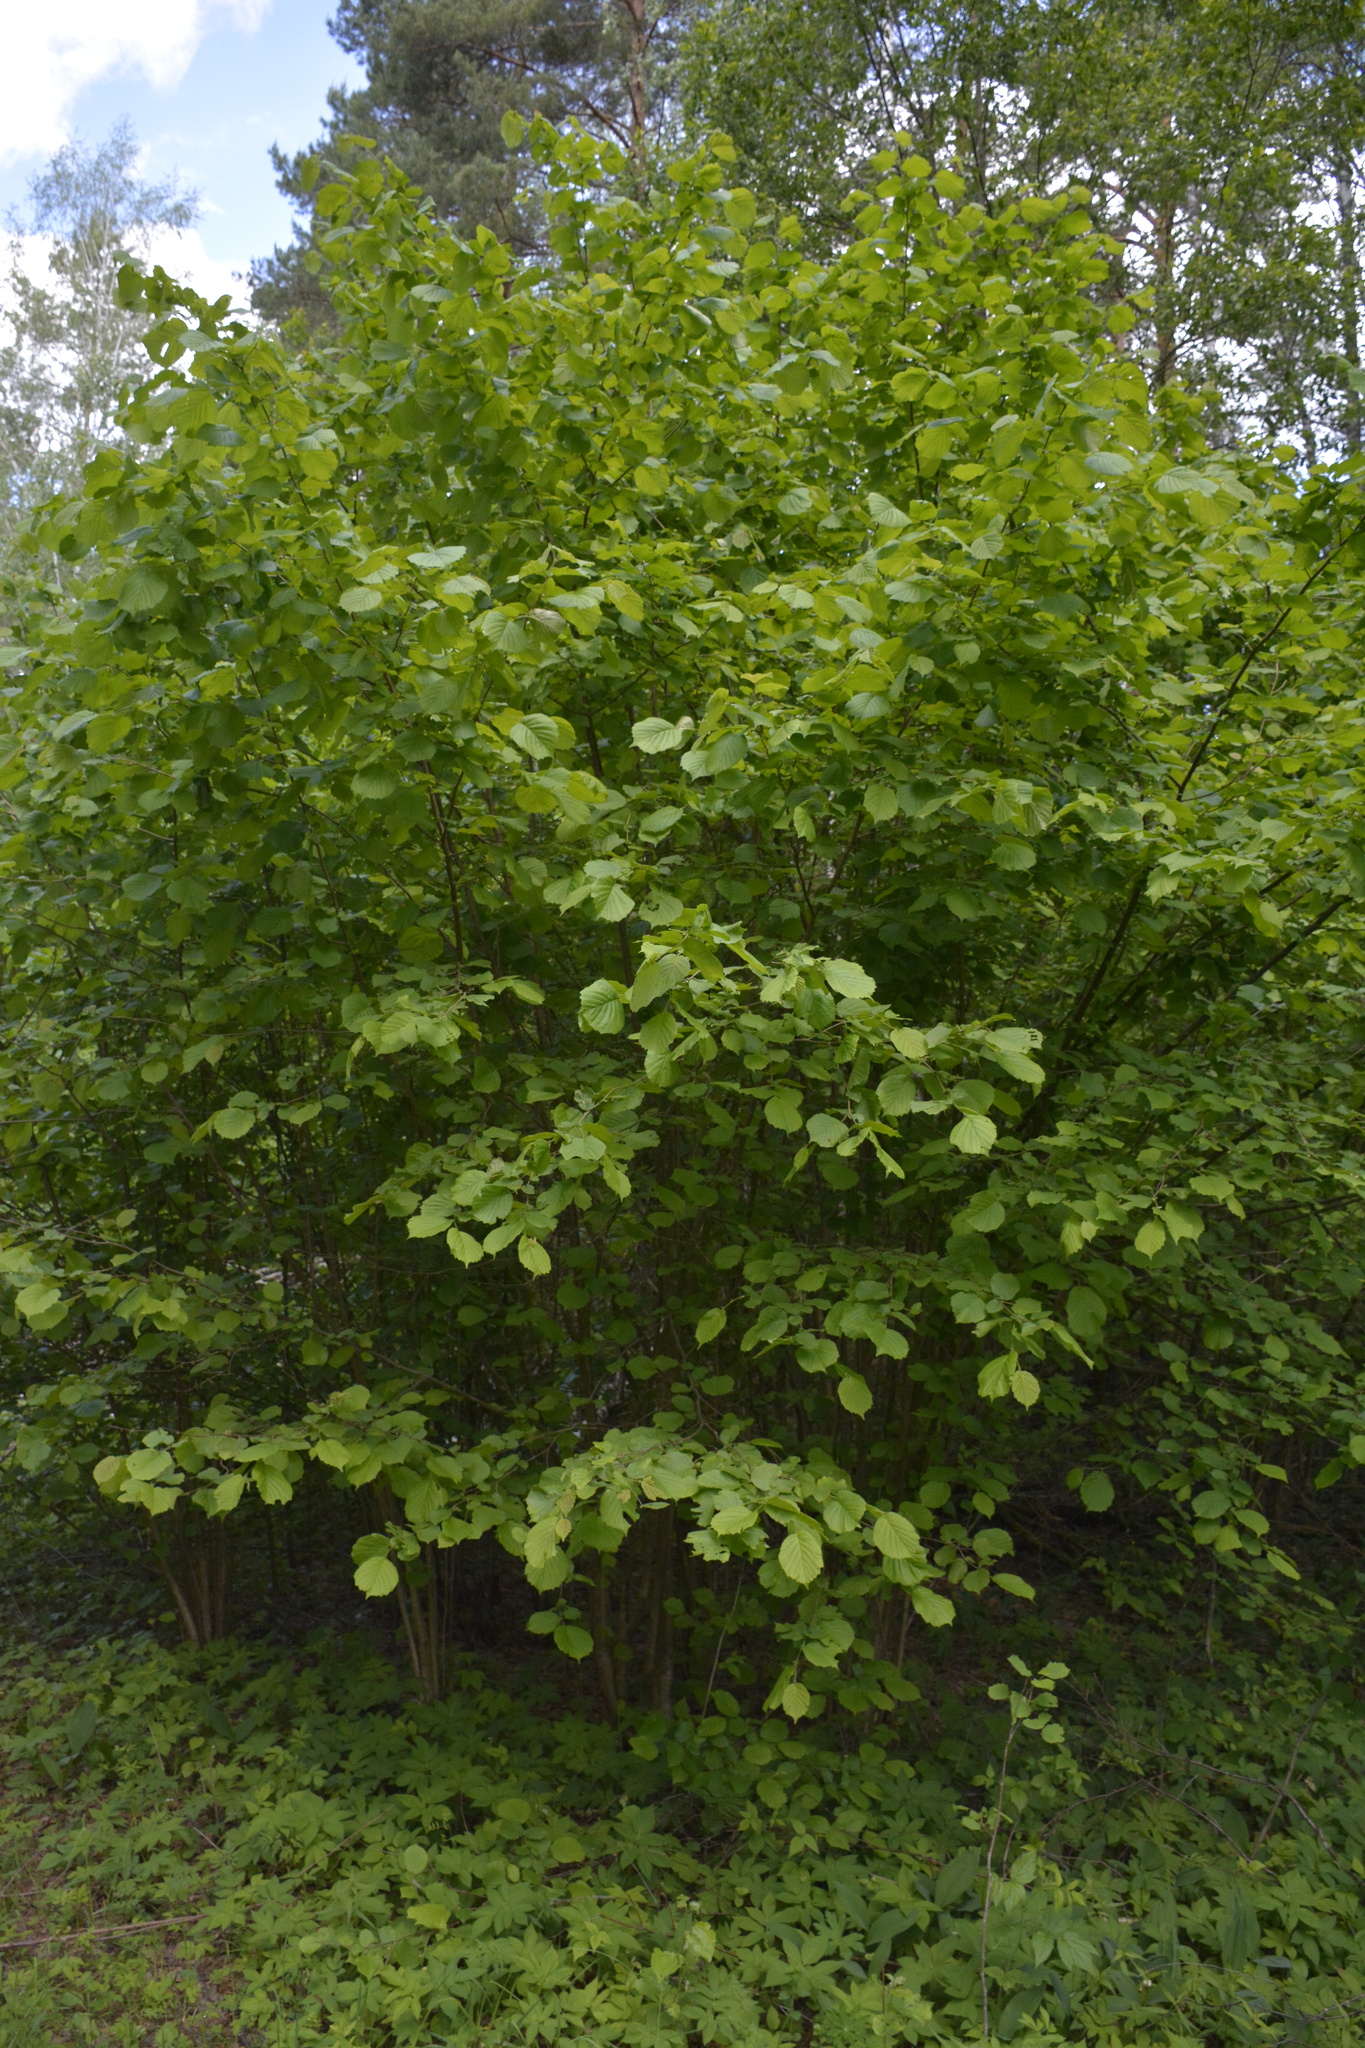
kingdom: Plantae
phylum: Tracheophyta
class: Magnoliopsida
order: Fagales
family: Betulaceae
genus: Corylus
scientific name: Corylus avellana
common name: European hazel
